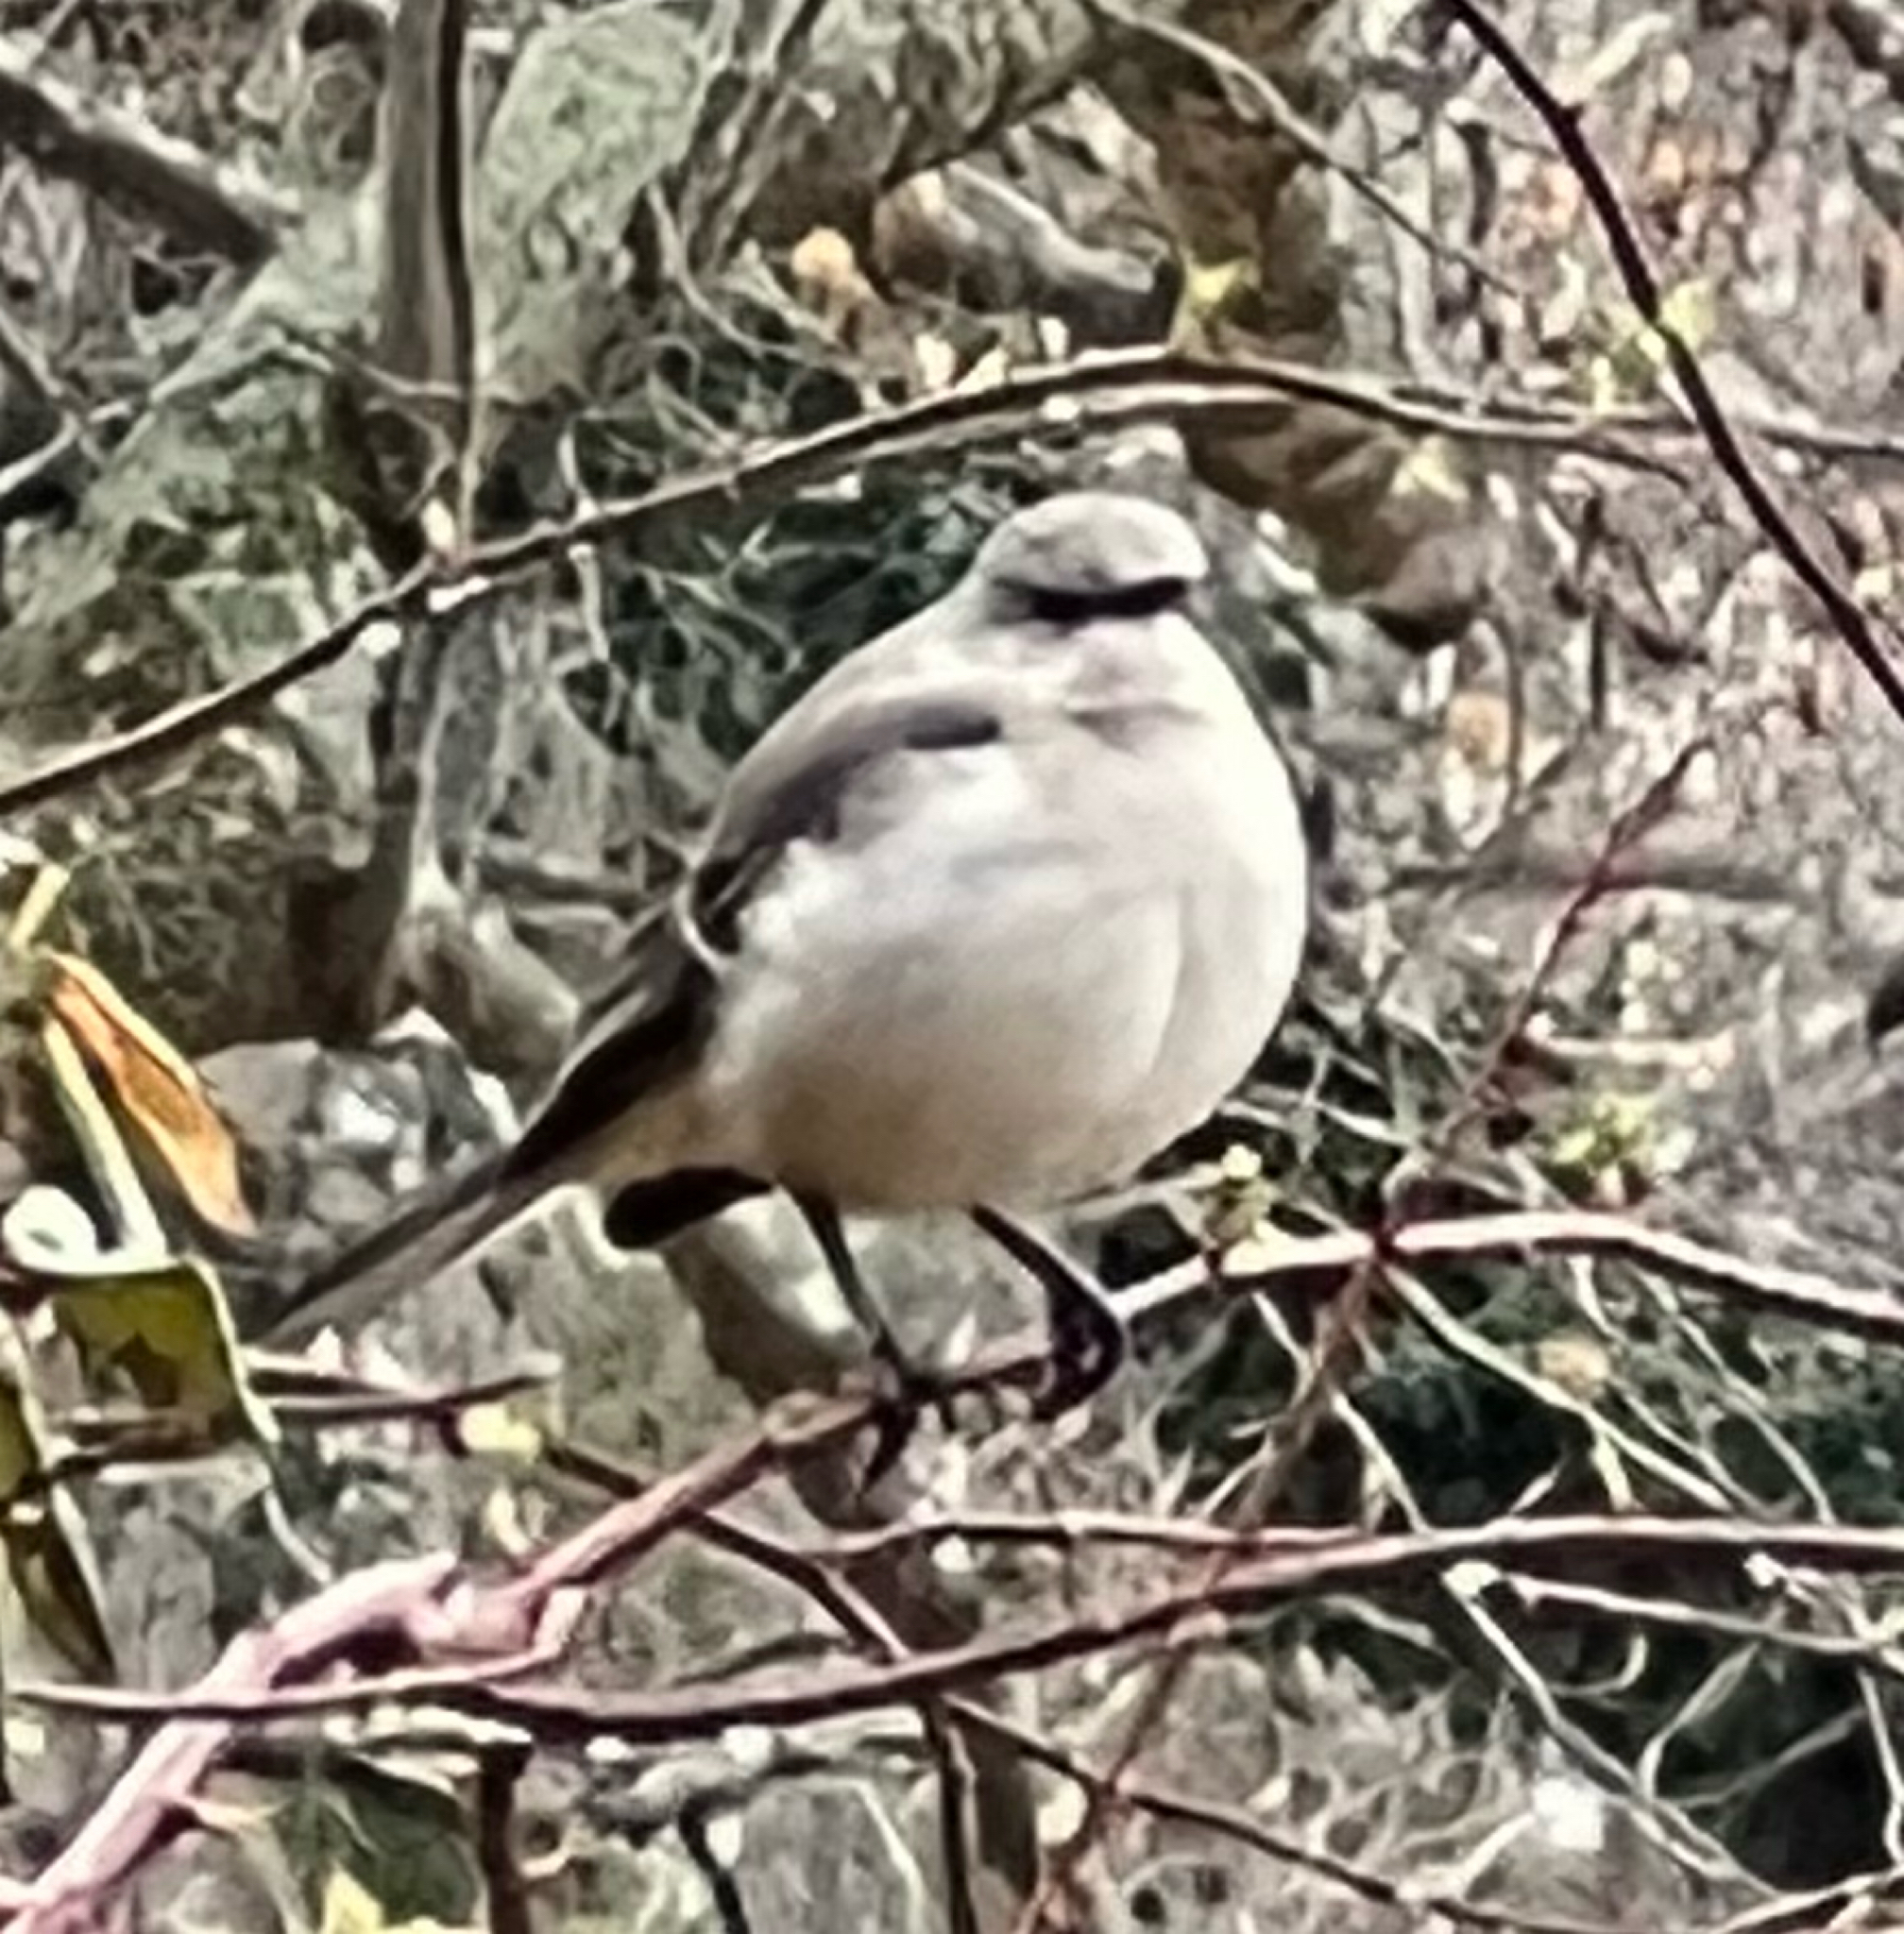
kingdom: Animalia
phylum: Chordata
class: Aves
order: Passeriformes
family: Mimidae
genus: Mimus
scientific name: Mimus polyglottos
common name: Northern mockingbird
